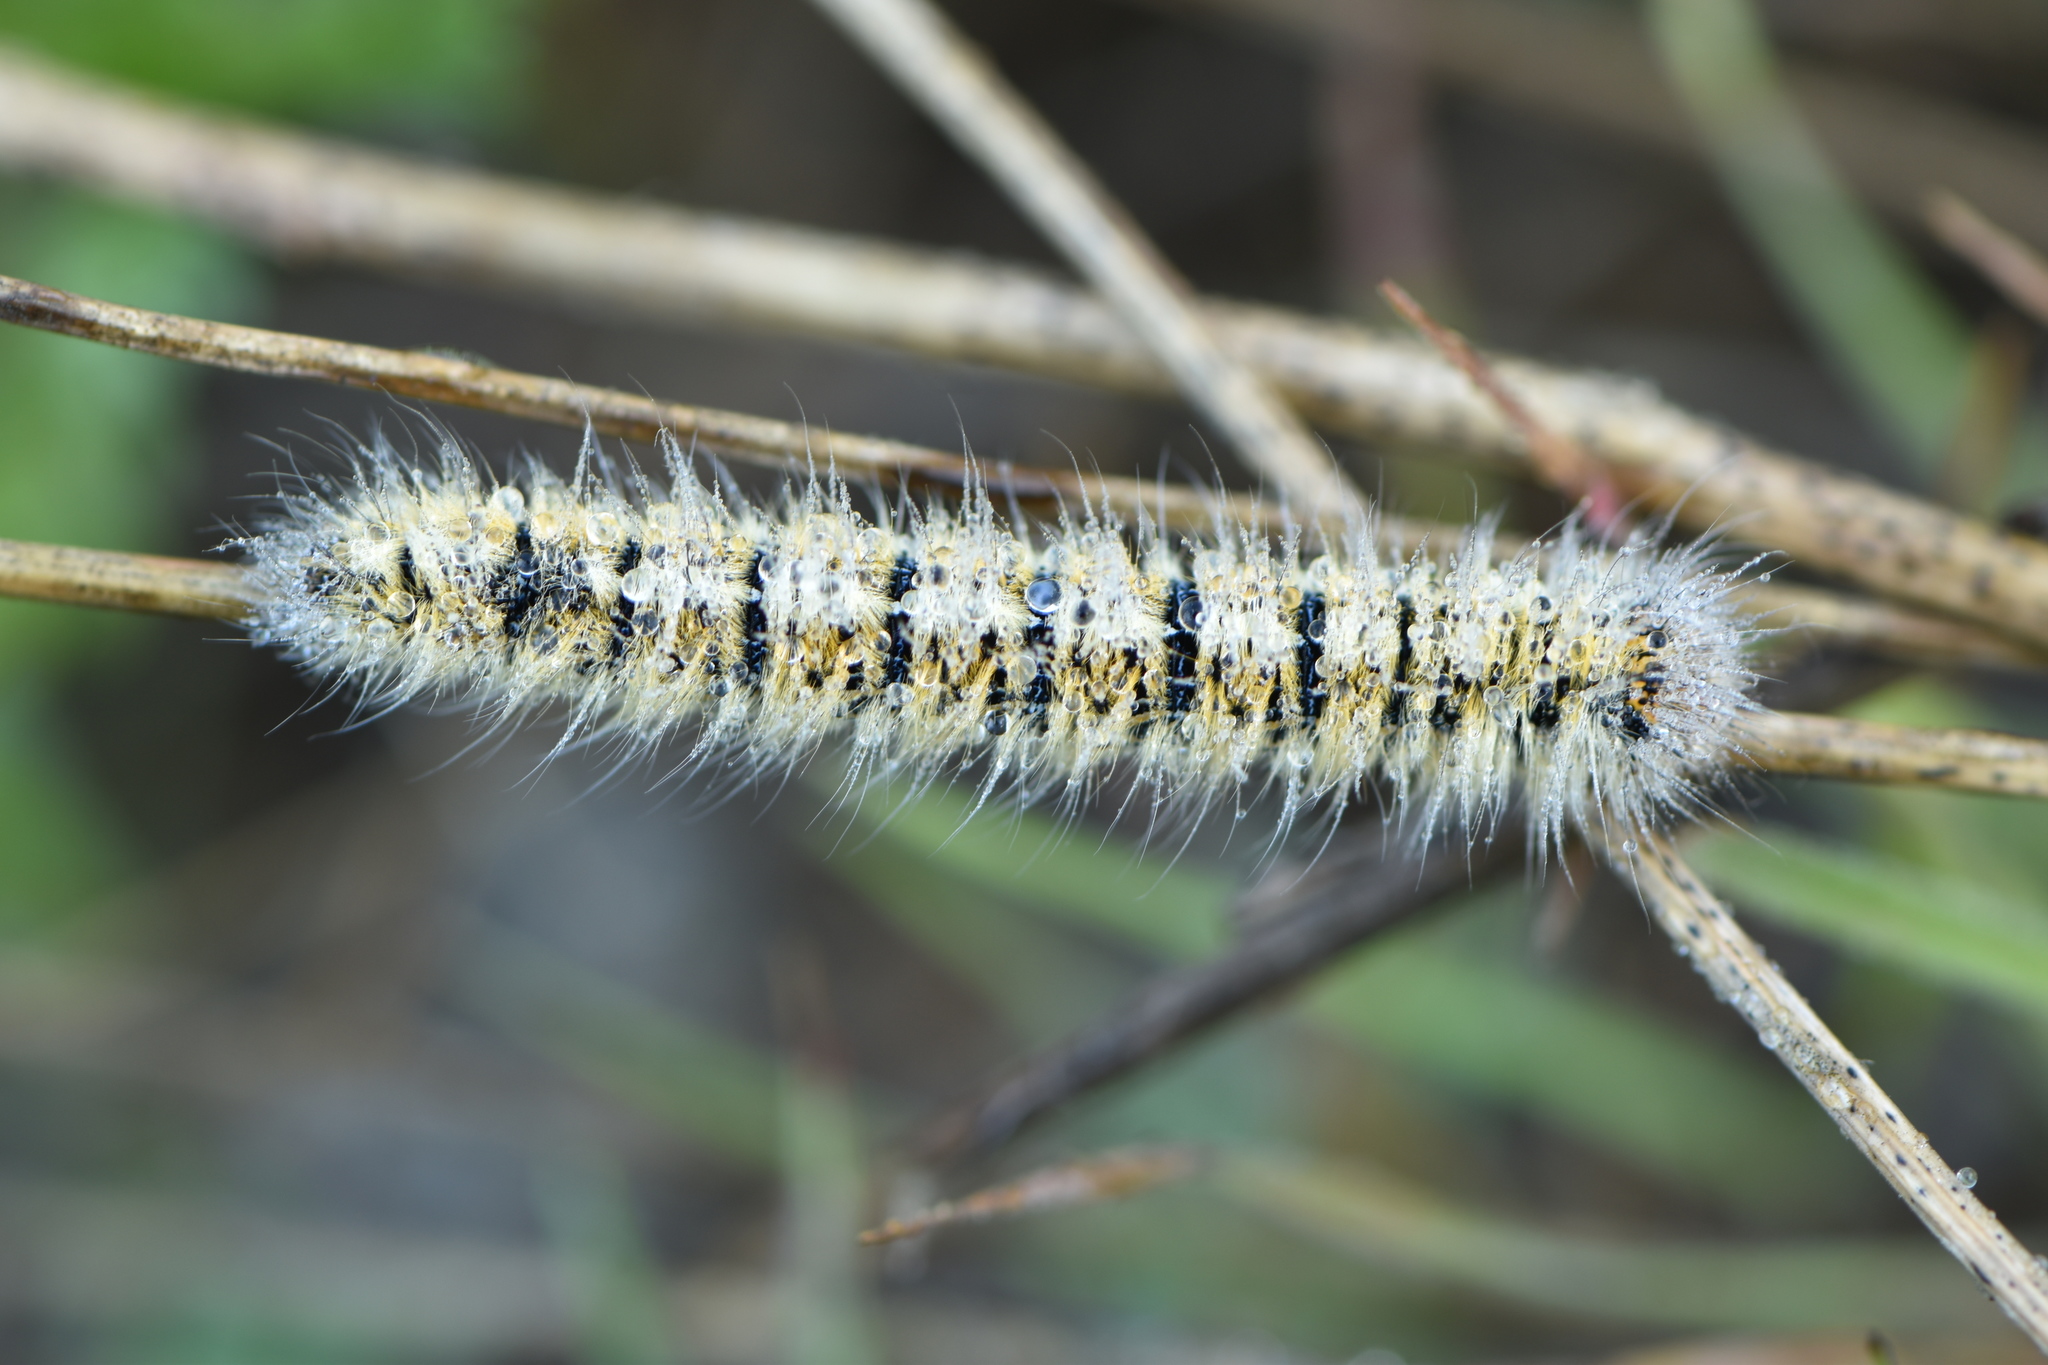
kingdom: Animalia
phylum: Arthropoda
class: Insecta
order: Lepidoptera
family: Lasiocampidae
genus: Lasiocampa
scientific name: Lasiocampa trifolii
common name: Grass eggar
